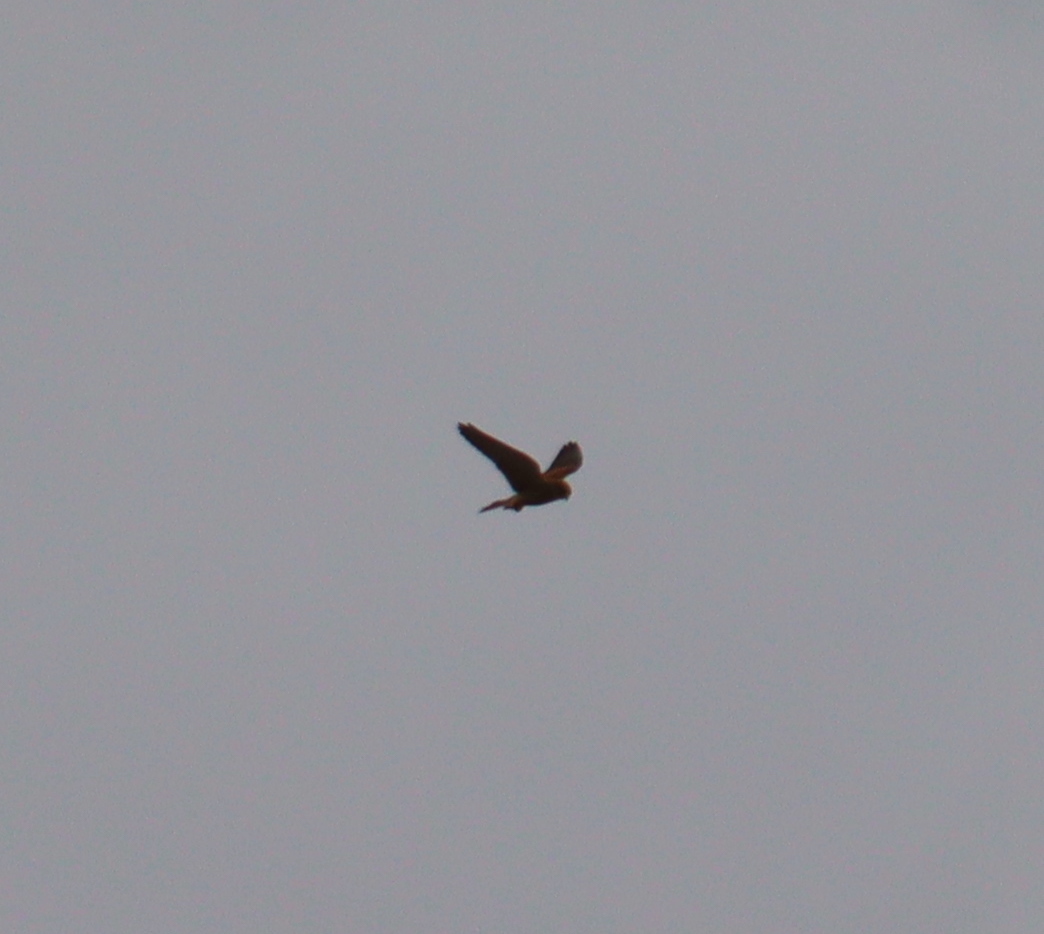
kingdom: Animalia
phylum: Chordata
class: Aves
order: Falconiformes
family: Falconidae
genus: Falco
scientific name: Falco tinnunculus
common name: Common kestrel
